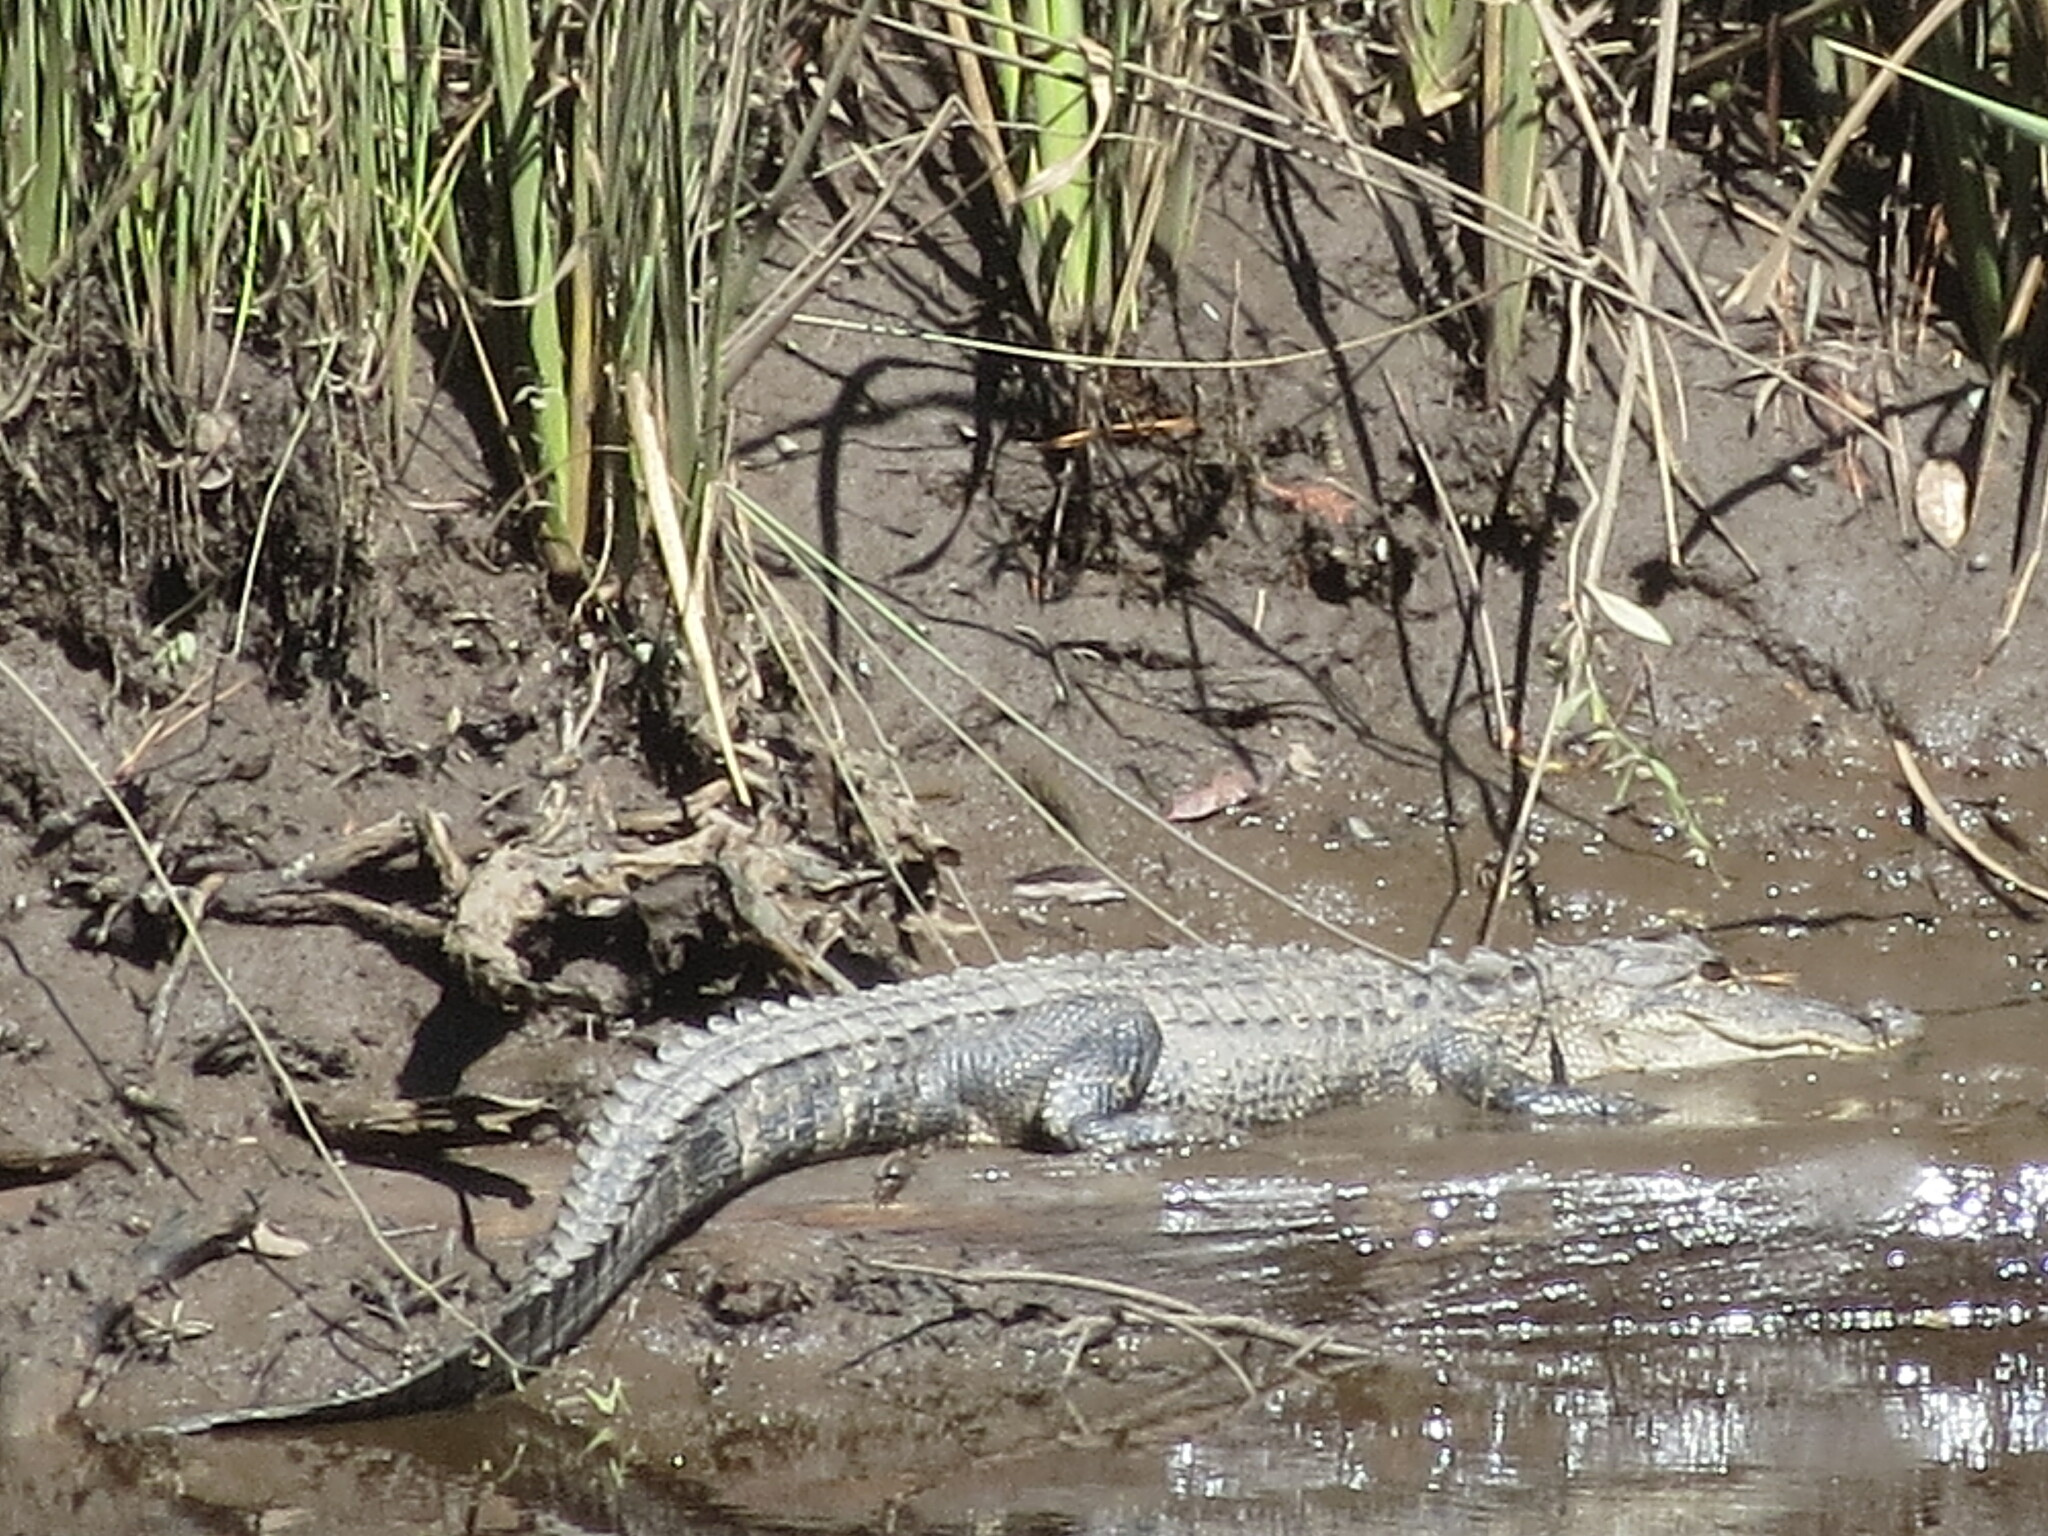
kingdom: Animalia
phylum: Chordata
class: Crocodylia
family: Alligatoridae
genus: Alligator
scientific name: Alligator mississippiensis
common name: American alligator
